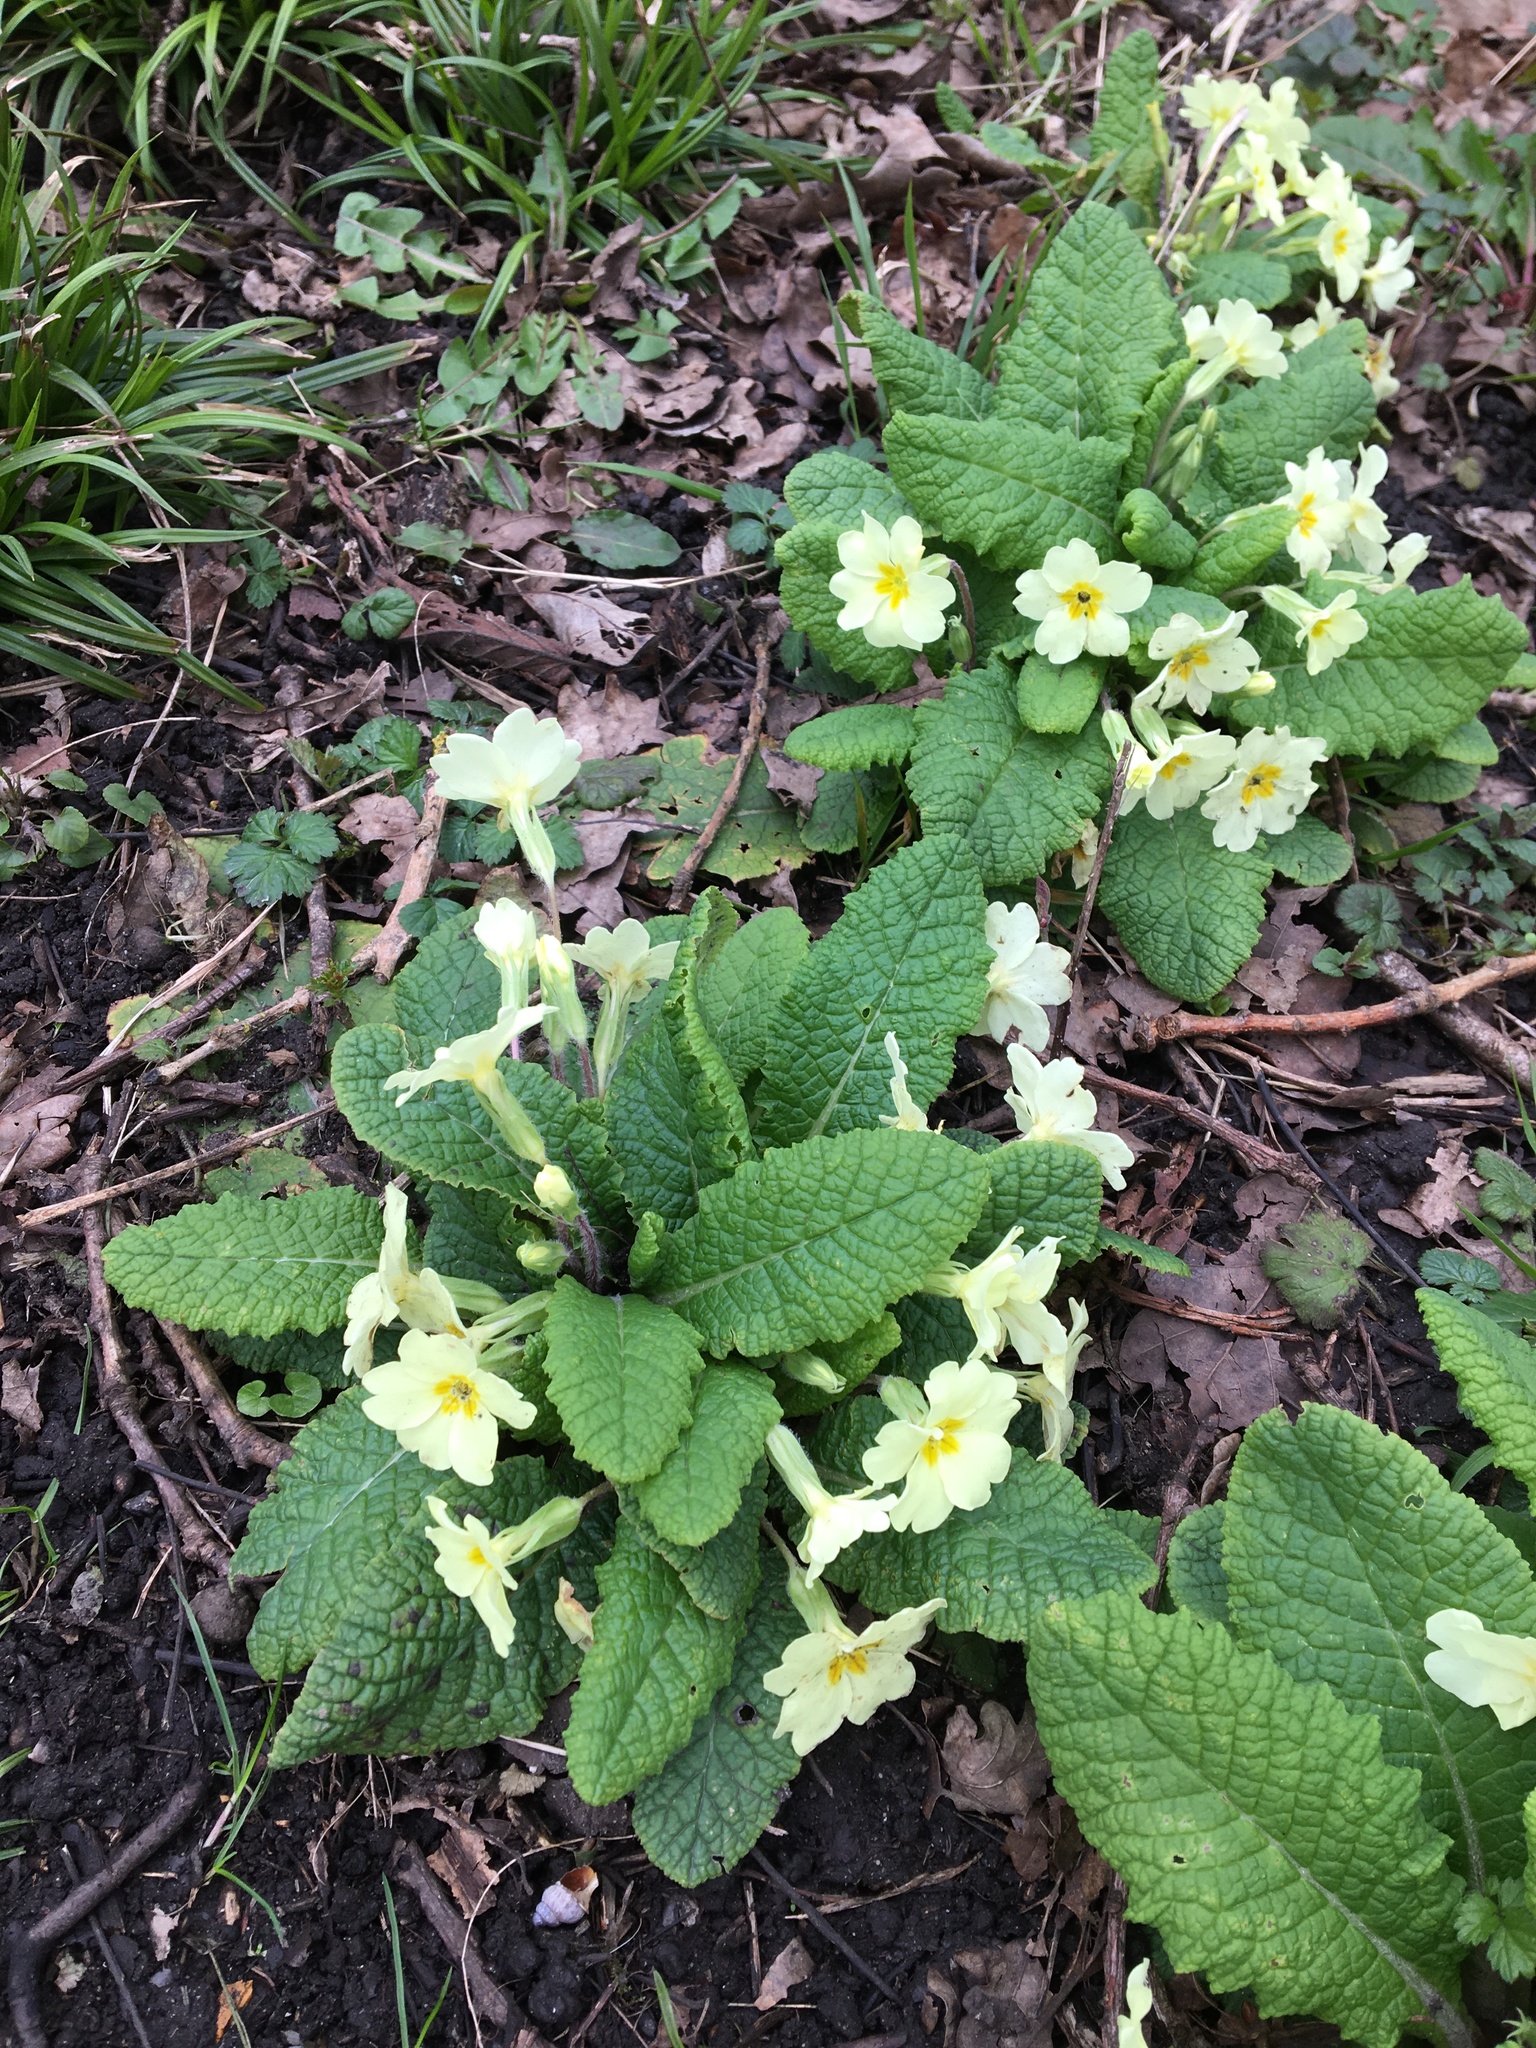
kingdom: Plantae
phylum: Tracheophyta
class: Magnoliopsida
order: Ericales
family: Primulaceae
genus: Primula
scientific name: Primula vulgaris
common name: Primrose
